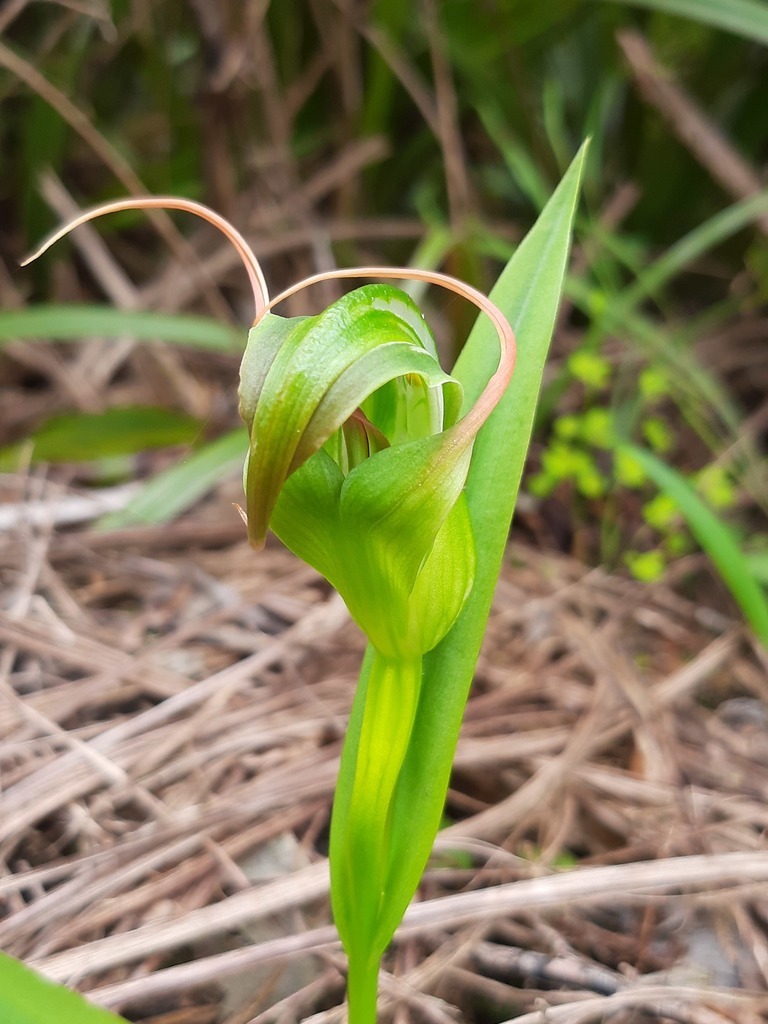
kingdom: Plantae
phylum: Tracheophyta
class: Liliopsida
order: Asparagales
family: Orchidaceae
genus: Pterostylis
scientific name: Pterostylis patens
